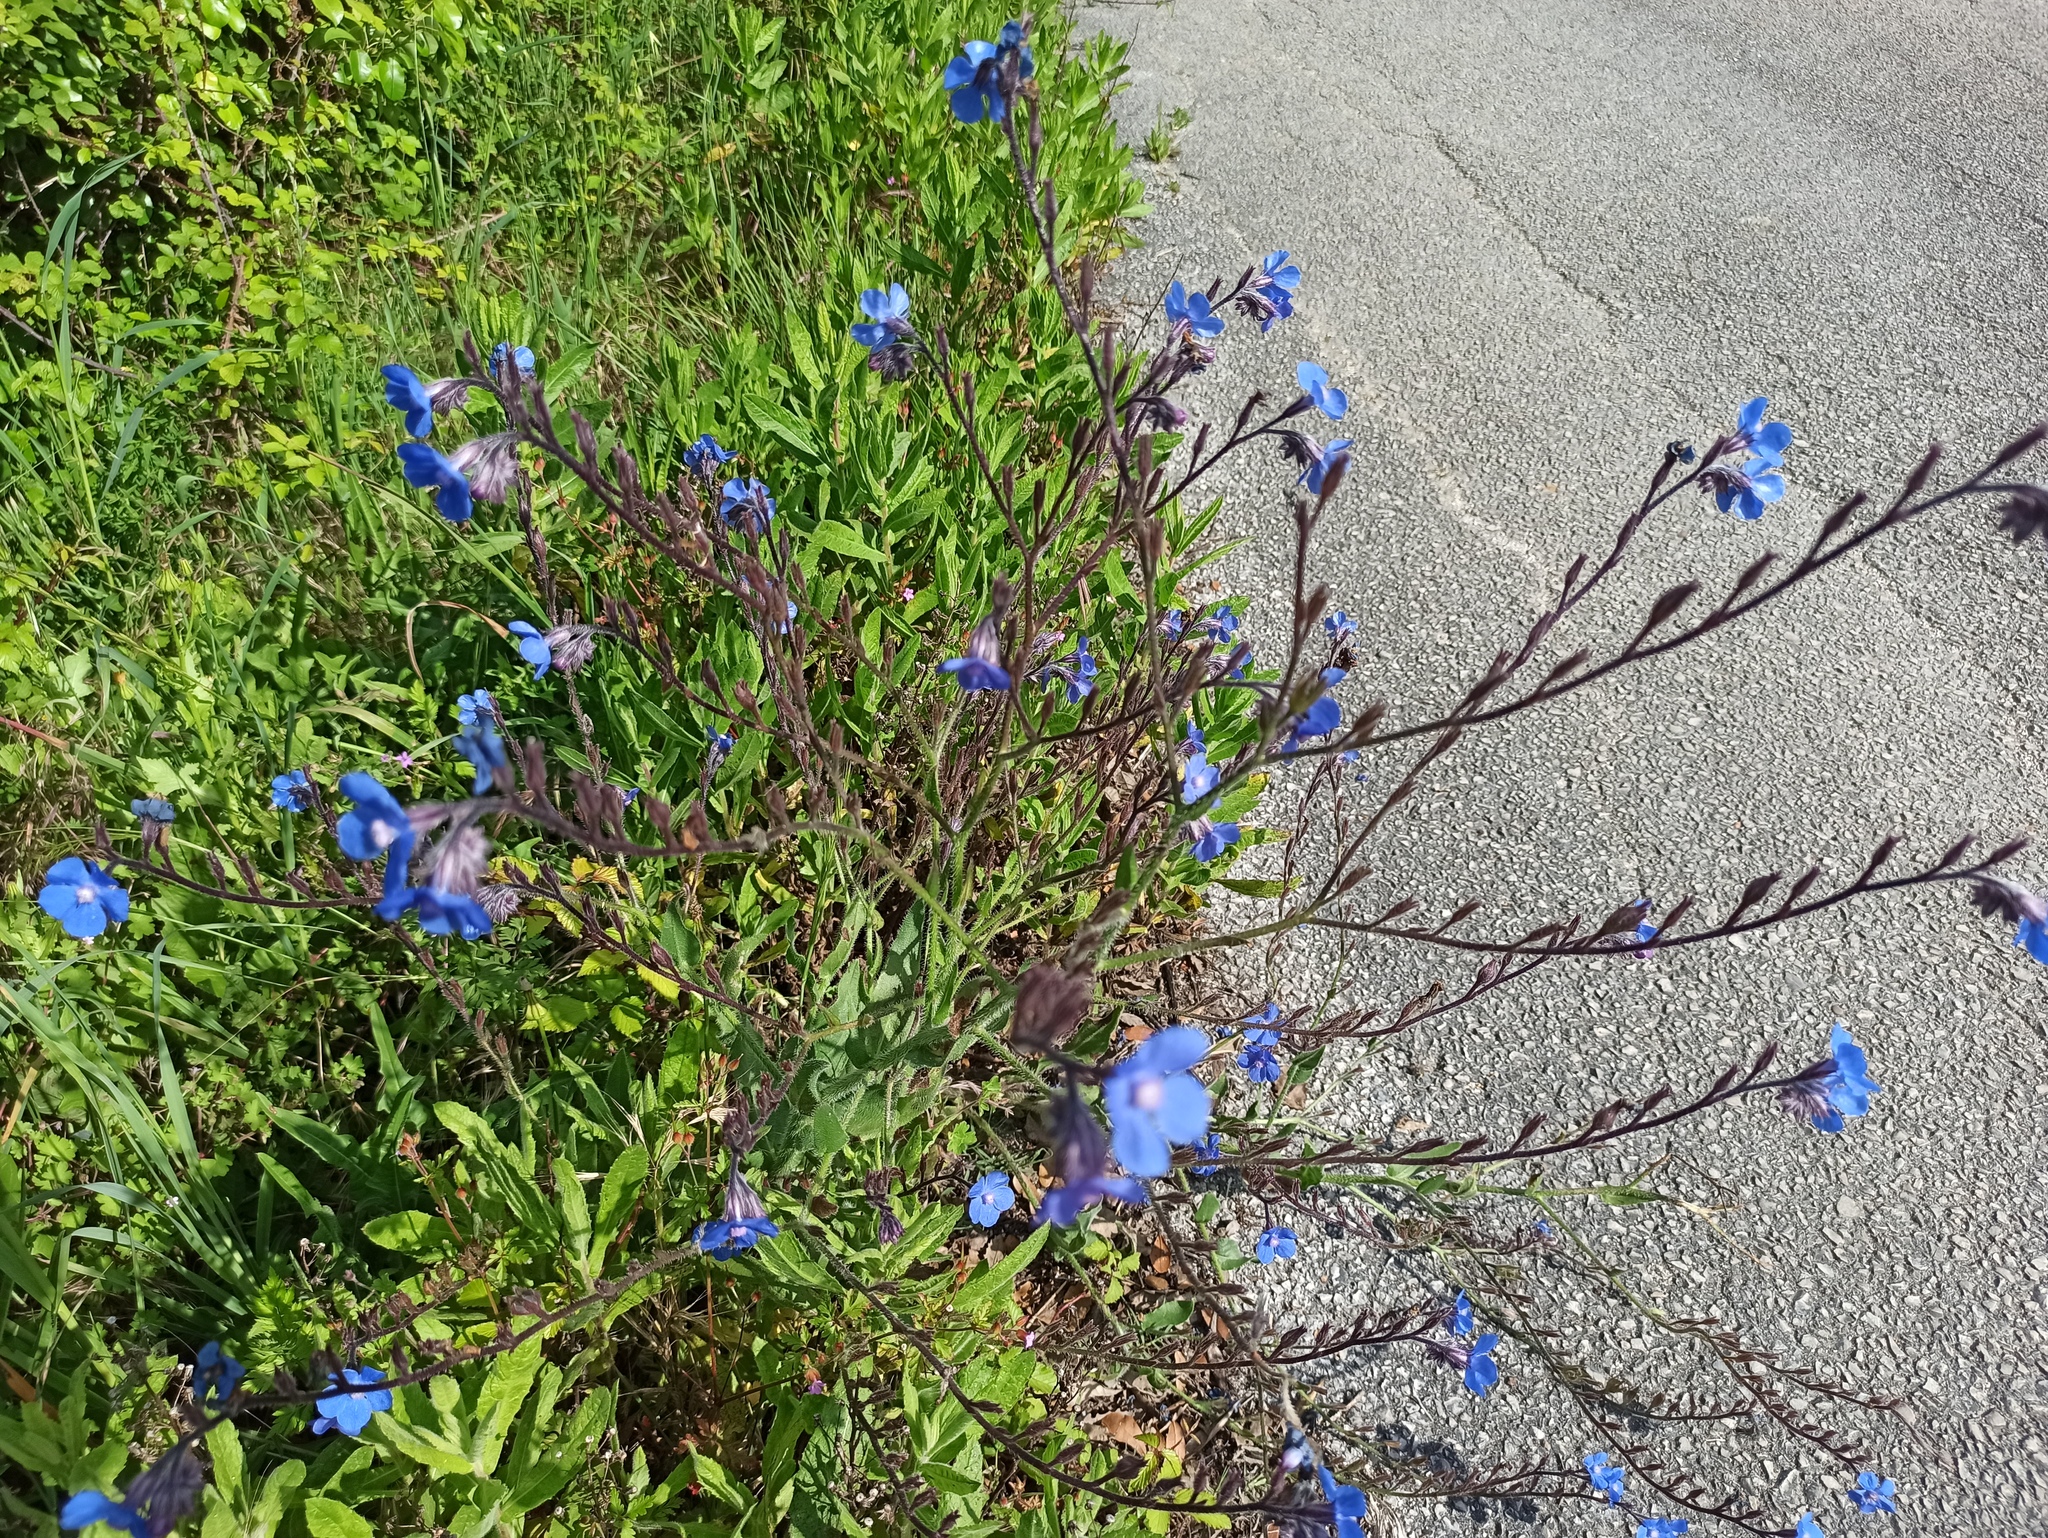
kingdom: Plantae
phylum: Tracheophyta
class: Magnoliopsida
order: Boraginales
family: Boraginaceae
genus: Anchusa
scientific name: Anchusa azurea
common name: Garden anchusa
